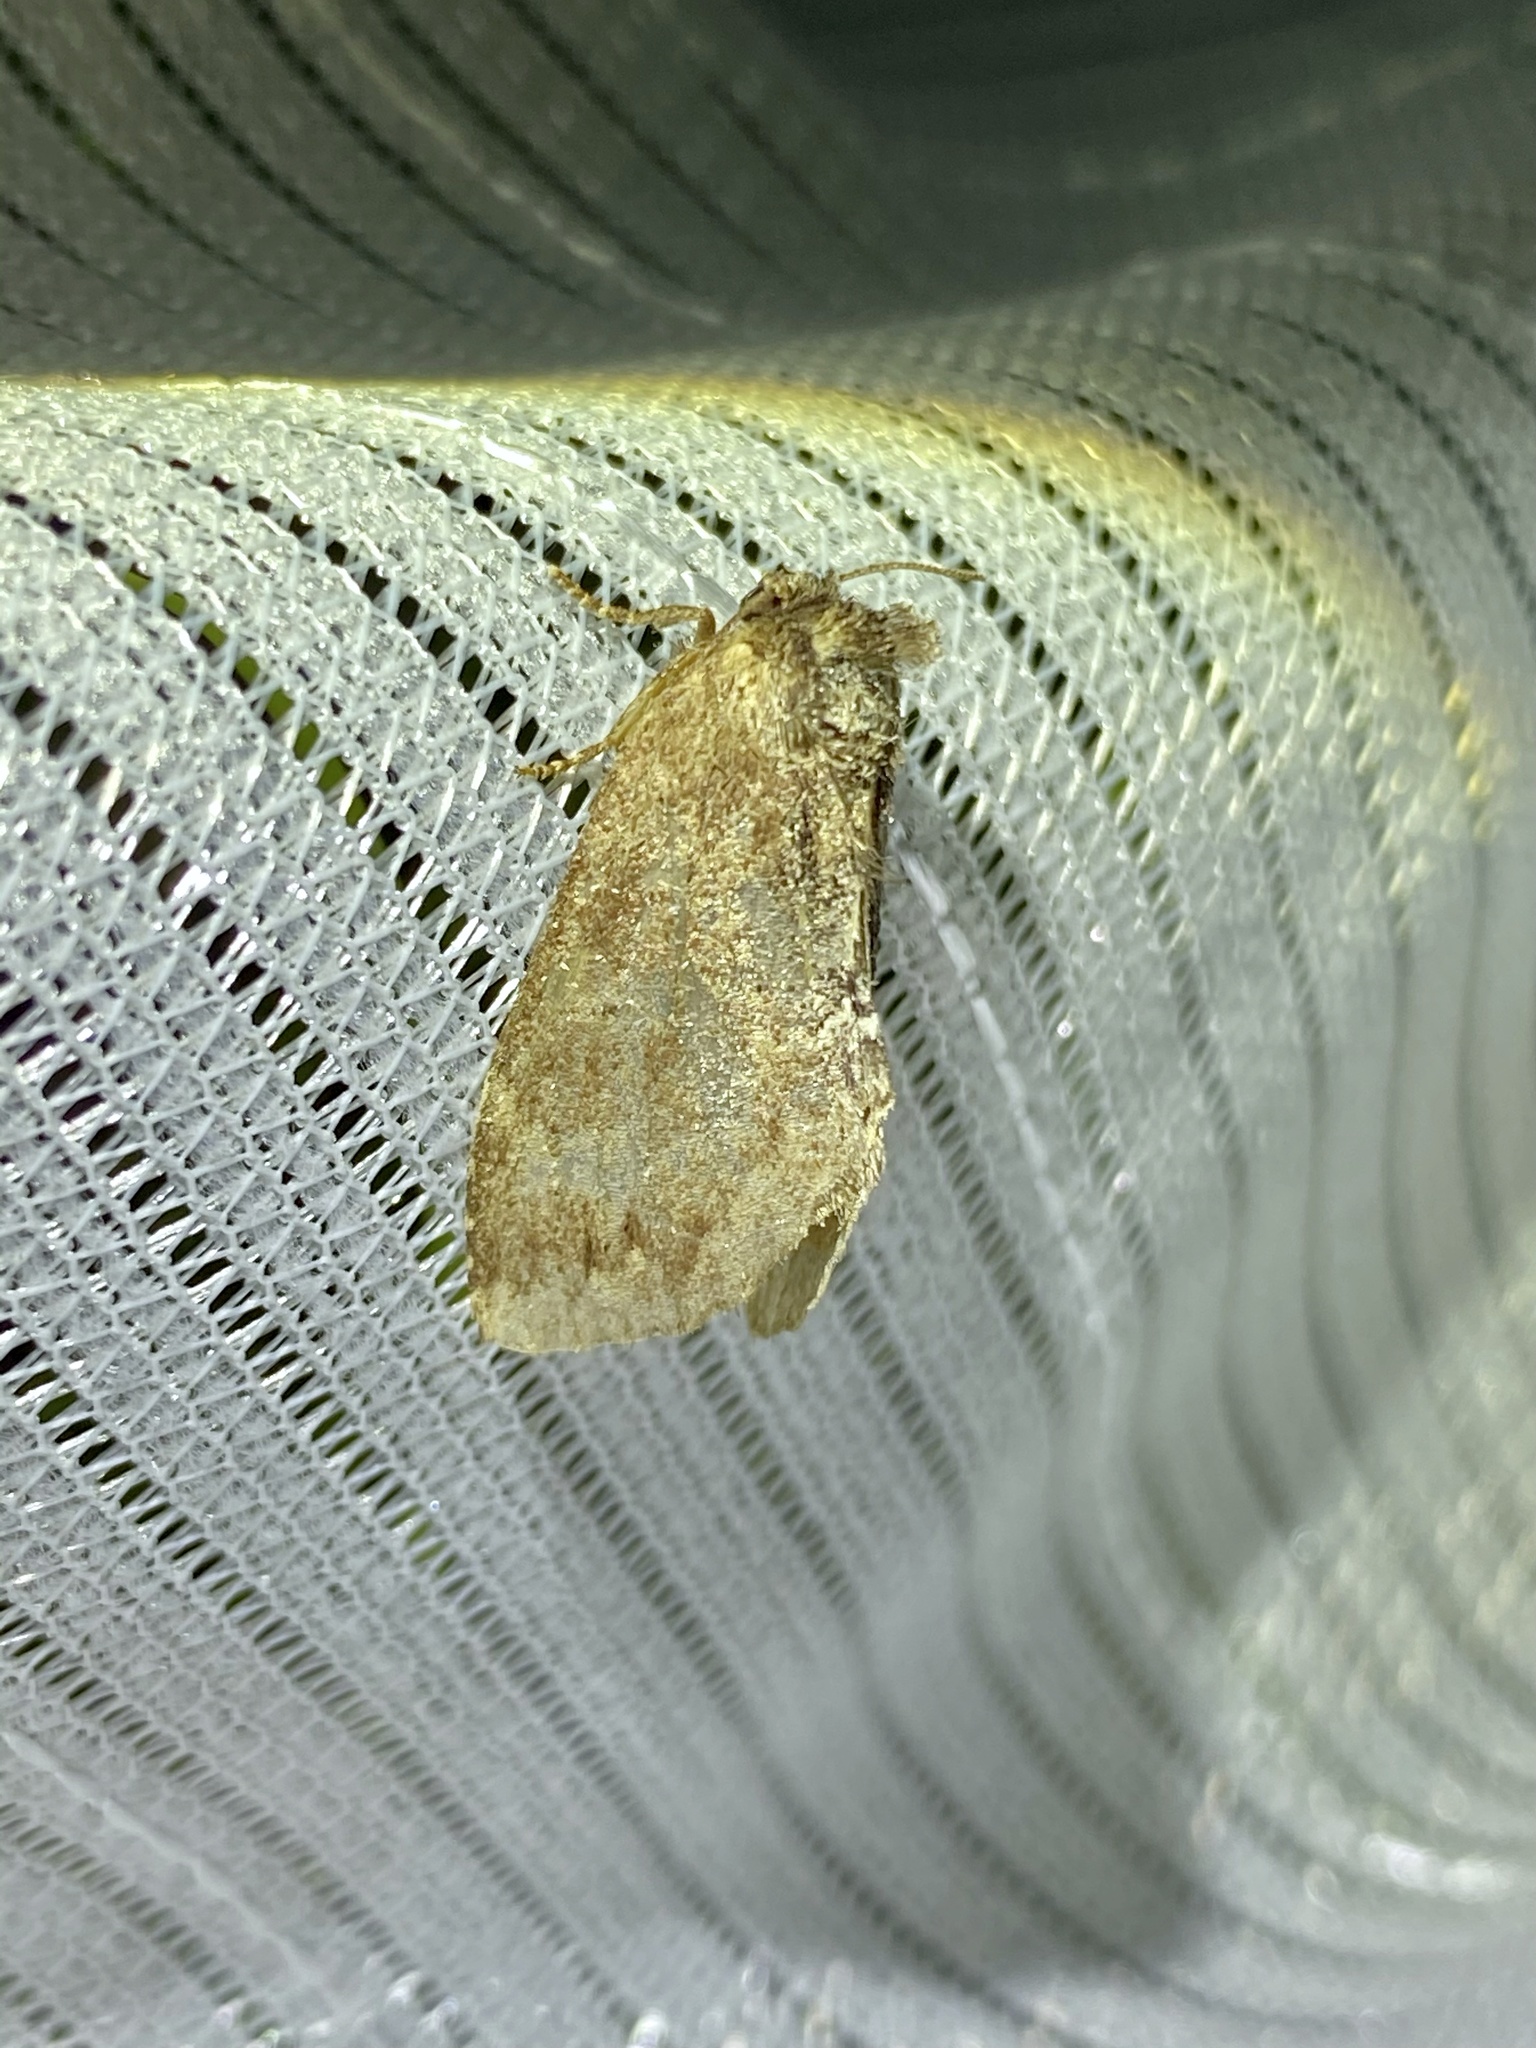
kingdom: Animalia
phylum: Arthropoda
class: Insecta
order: Lepidoptera
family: Notodontidae
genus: Lophontosia
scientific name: Lophontosia
